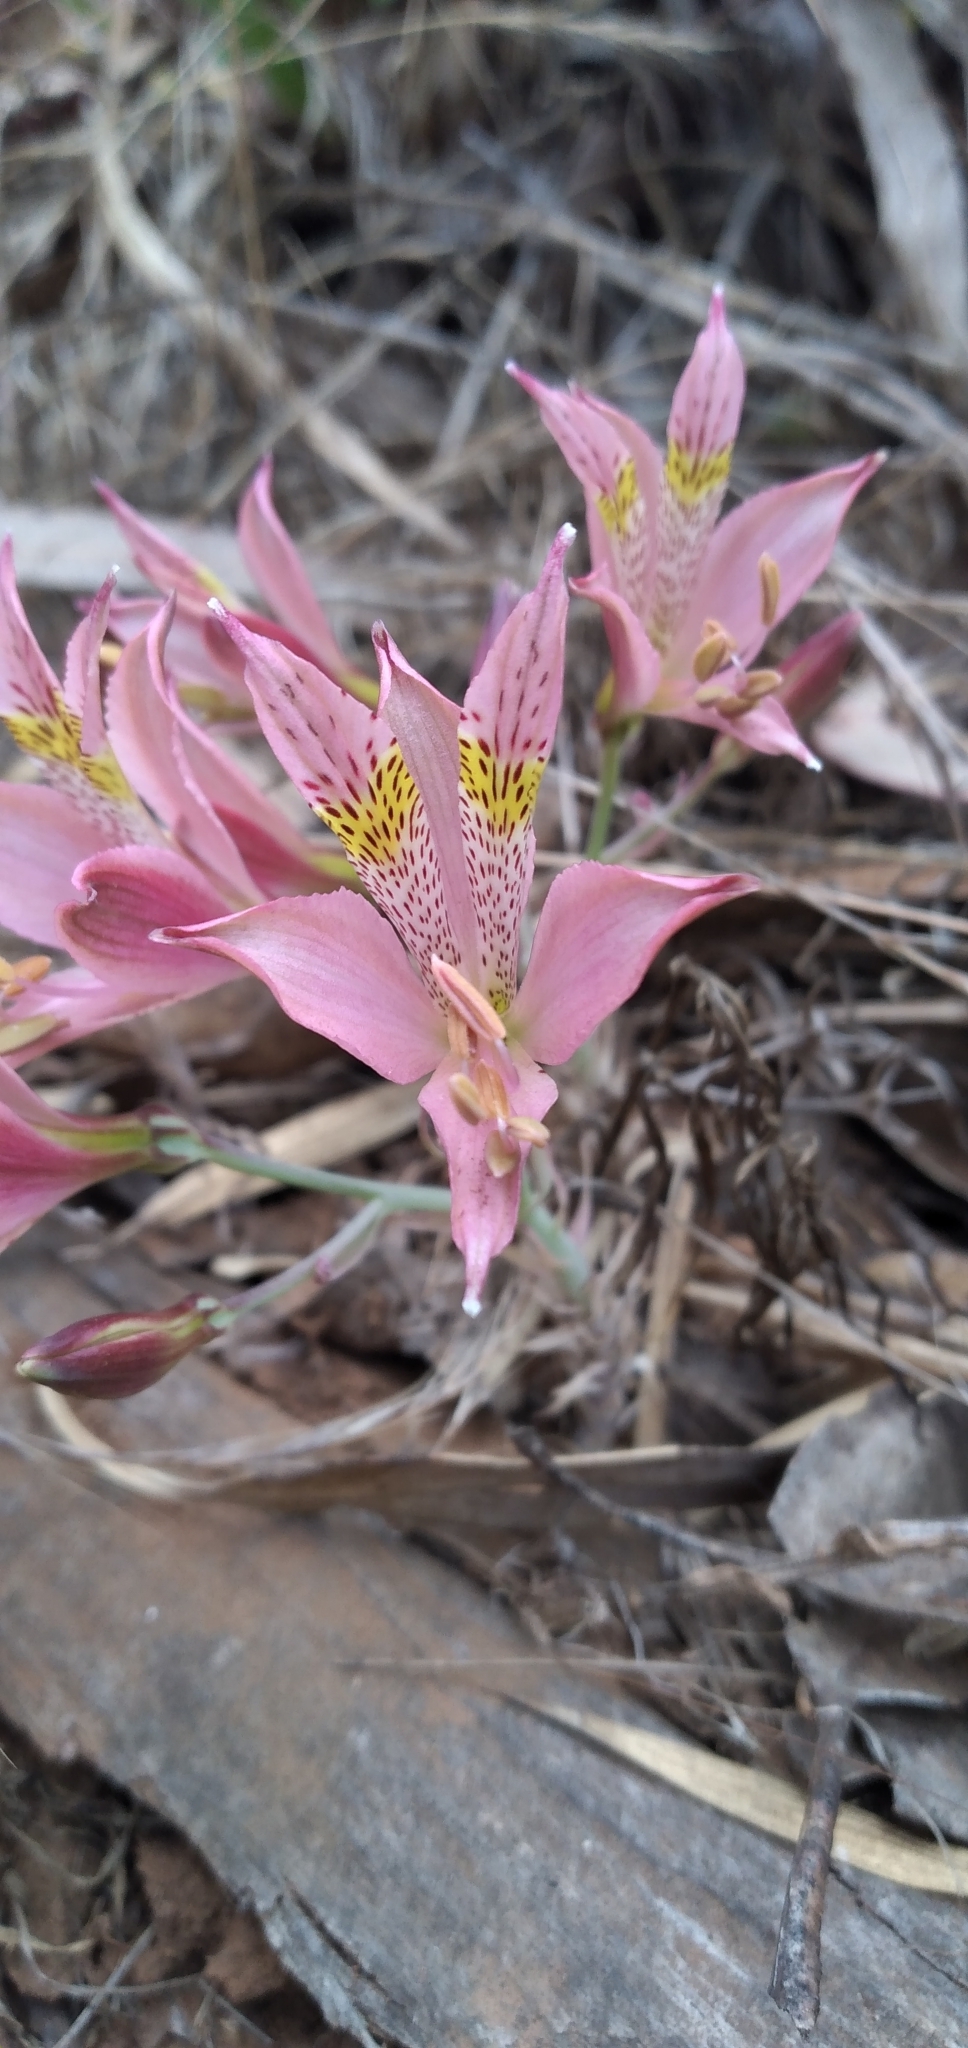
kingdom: Plantae
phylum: Tracheophyta
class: Liliopsida
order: Liliales
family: Alstroemeriaceae
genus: Alstroemeria
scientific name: Alstroemeria hookeri
